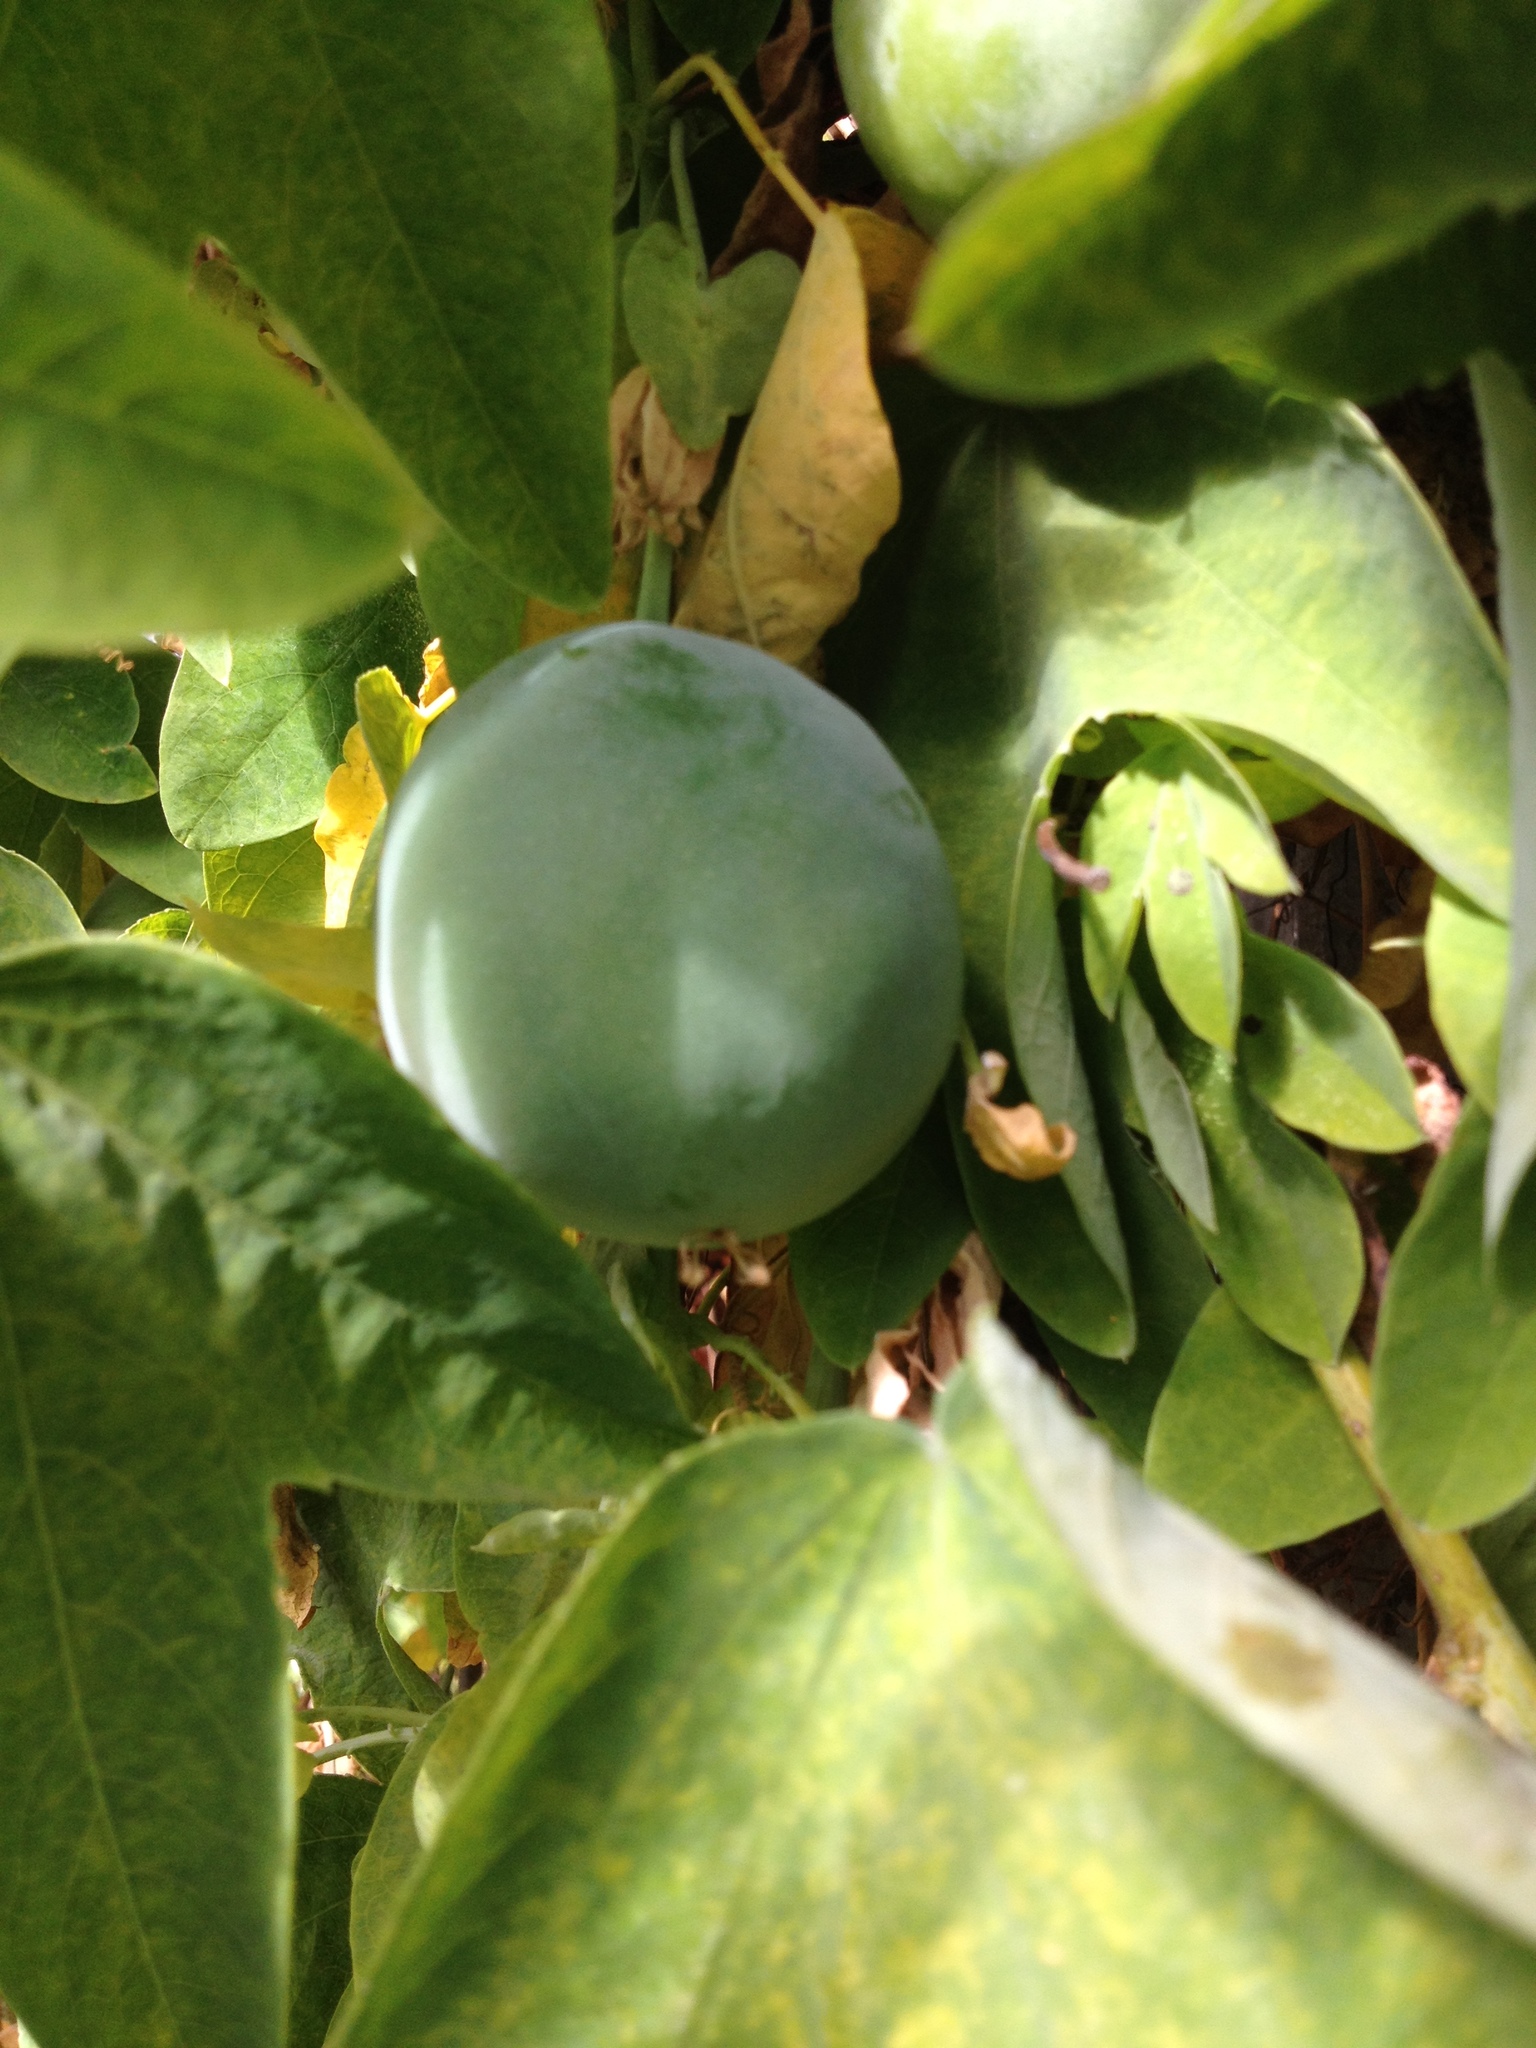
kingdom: Plantae
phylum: Tracheophyta
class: Magnoliopsida
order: Malpighiales
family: Passifloraceae
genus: Passiflora
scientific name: Passiflora subpeltata
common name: White passionflower
